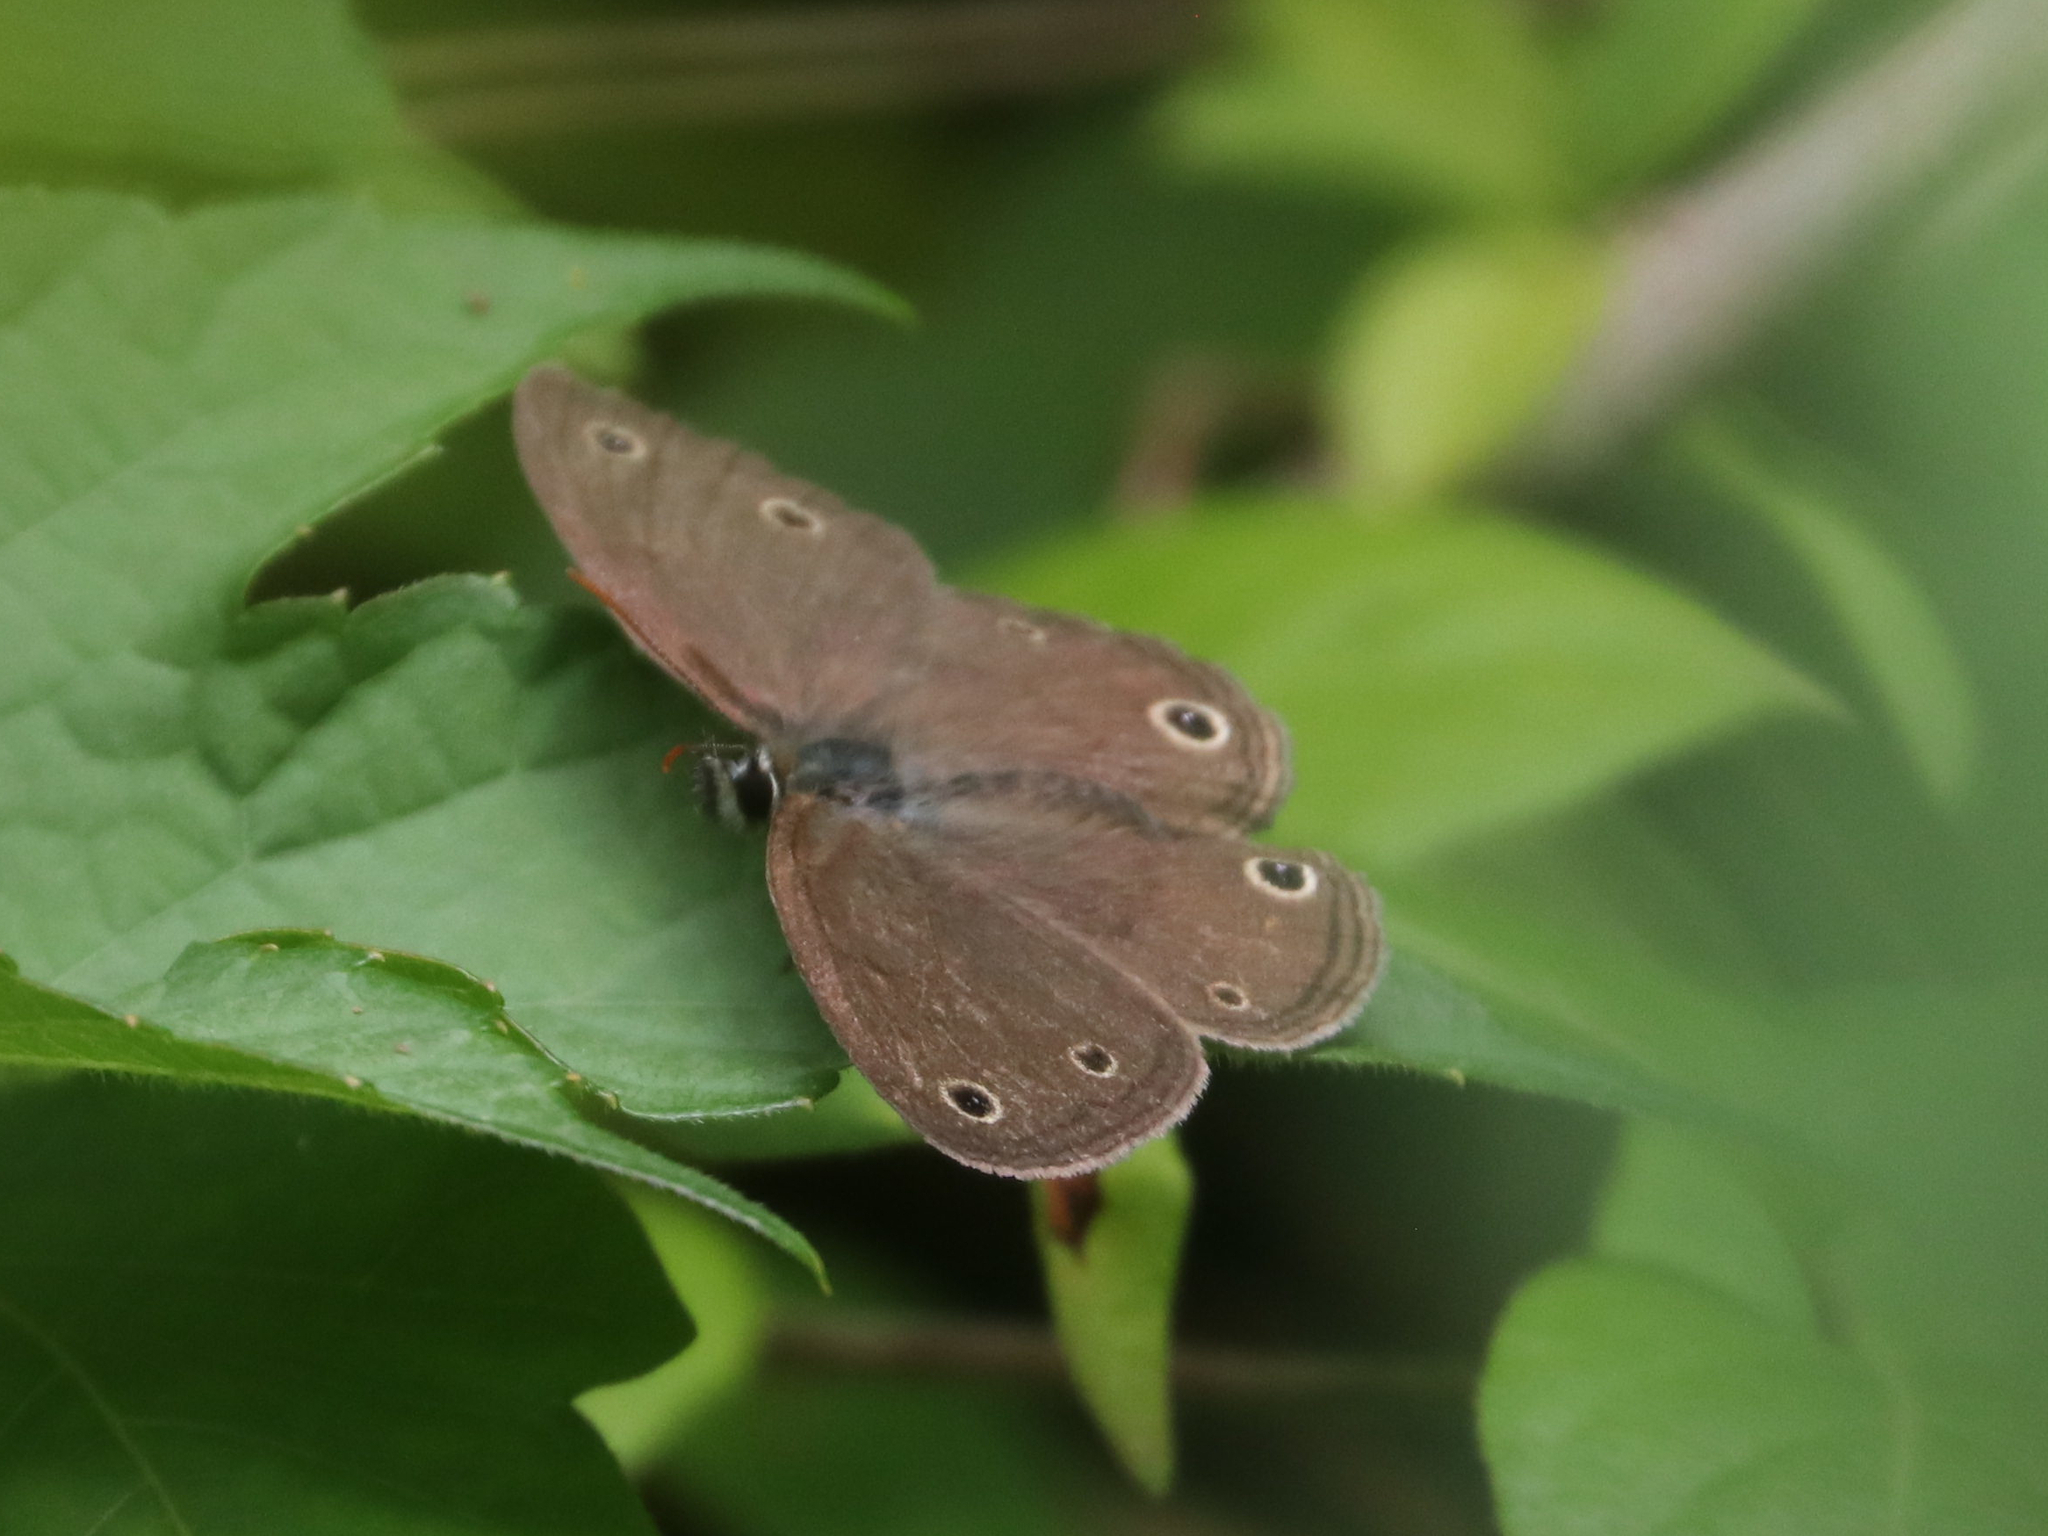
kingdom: Animalia
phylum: Arthropoda
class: Insecta
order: Lepidoptera
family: Nymphalidae
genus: Euptychia
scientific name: Euptychia cymela
